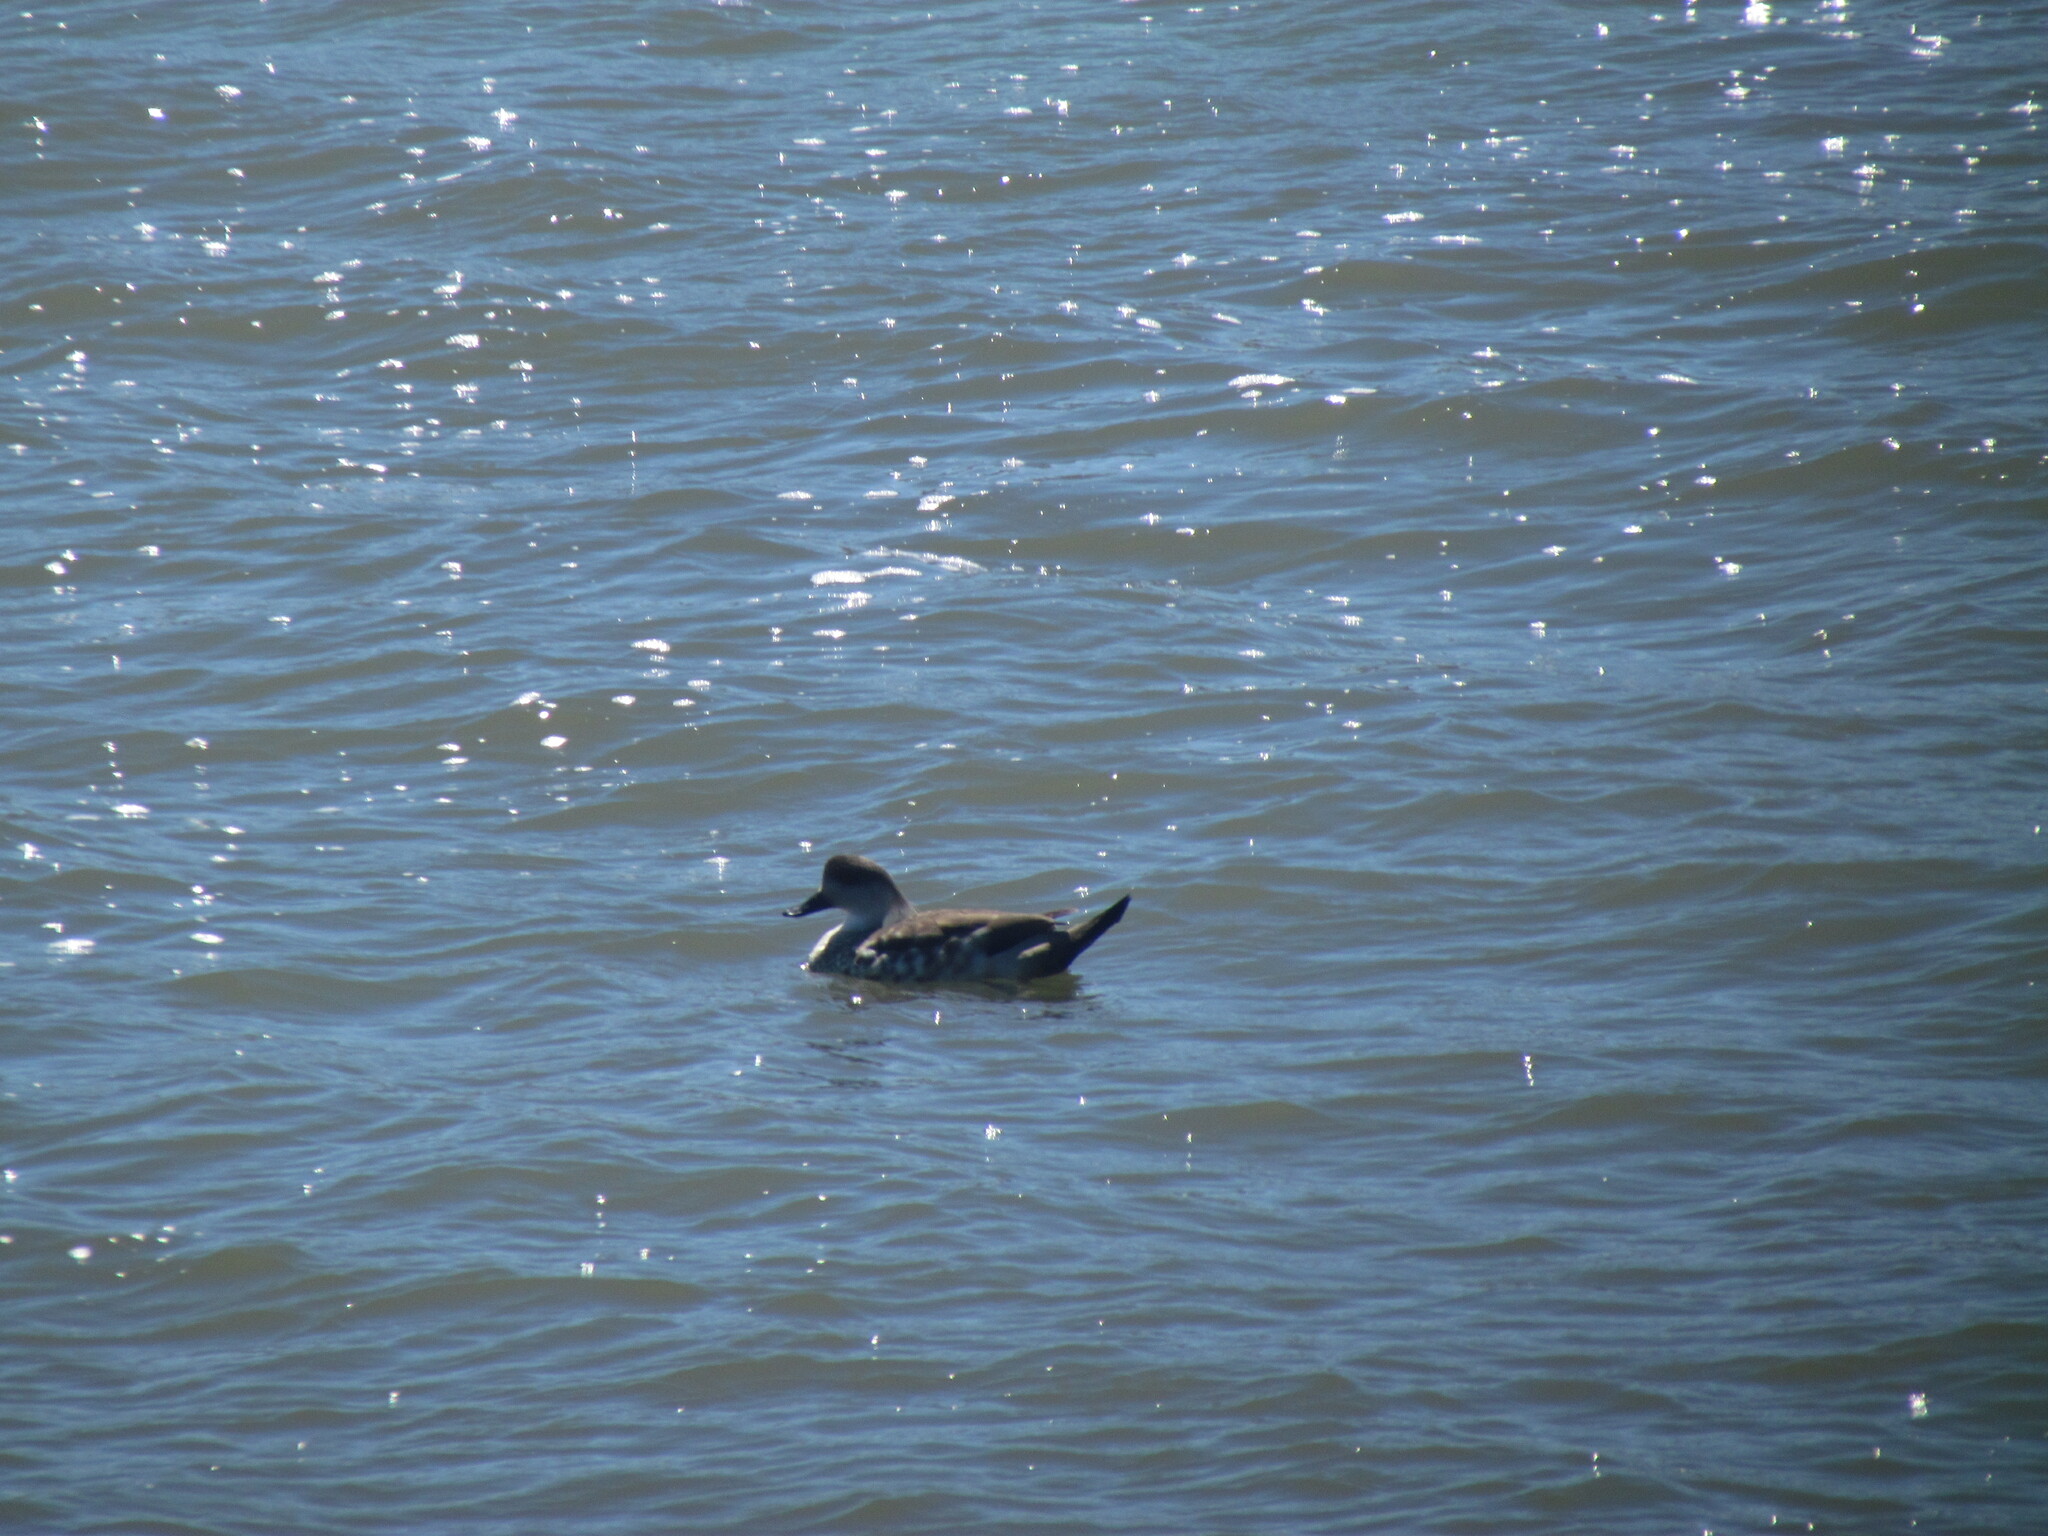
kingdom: Animalia
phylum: Chordata
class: Aves
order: Anseriformes
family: Anatidae
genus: Lophonetta
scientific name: Lophonetta specularioides
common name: Crested duck
